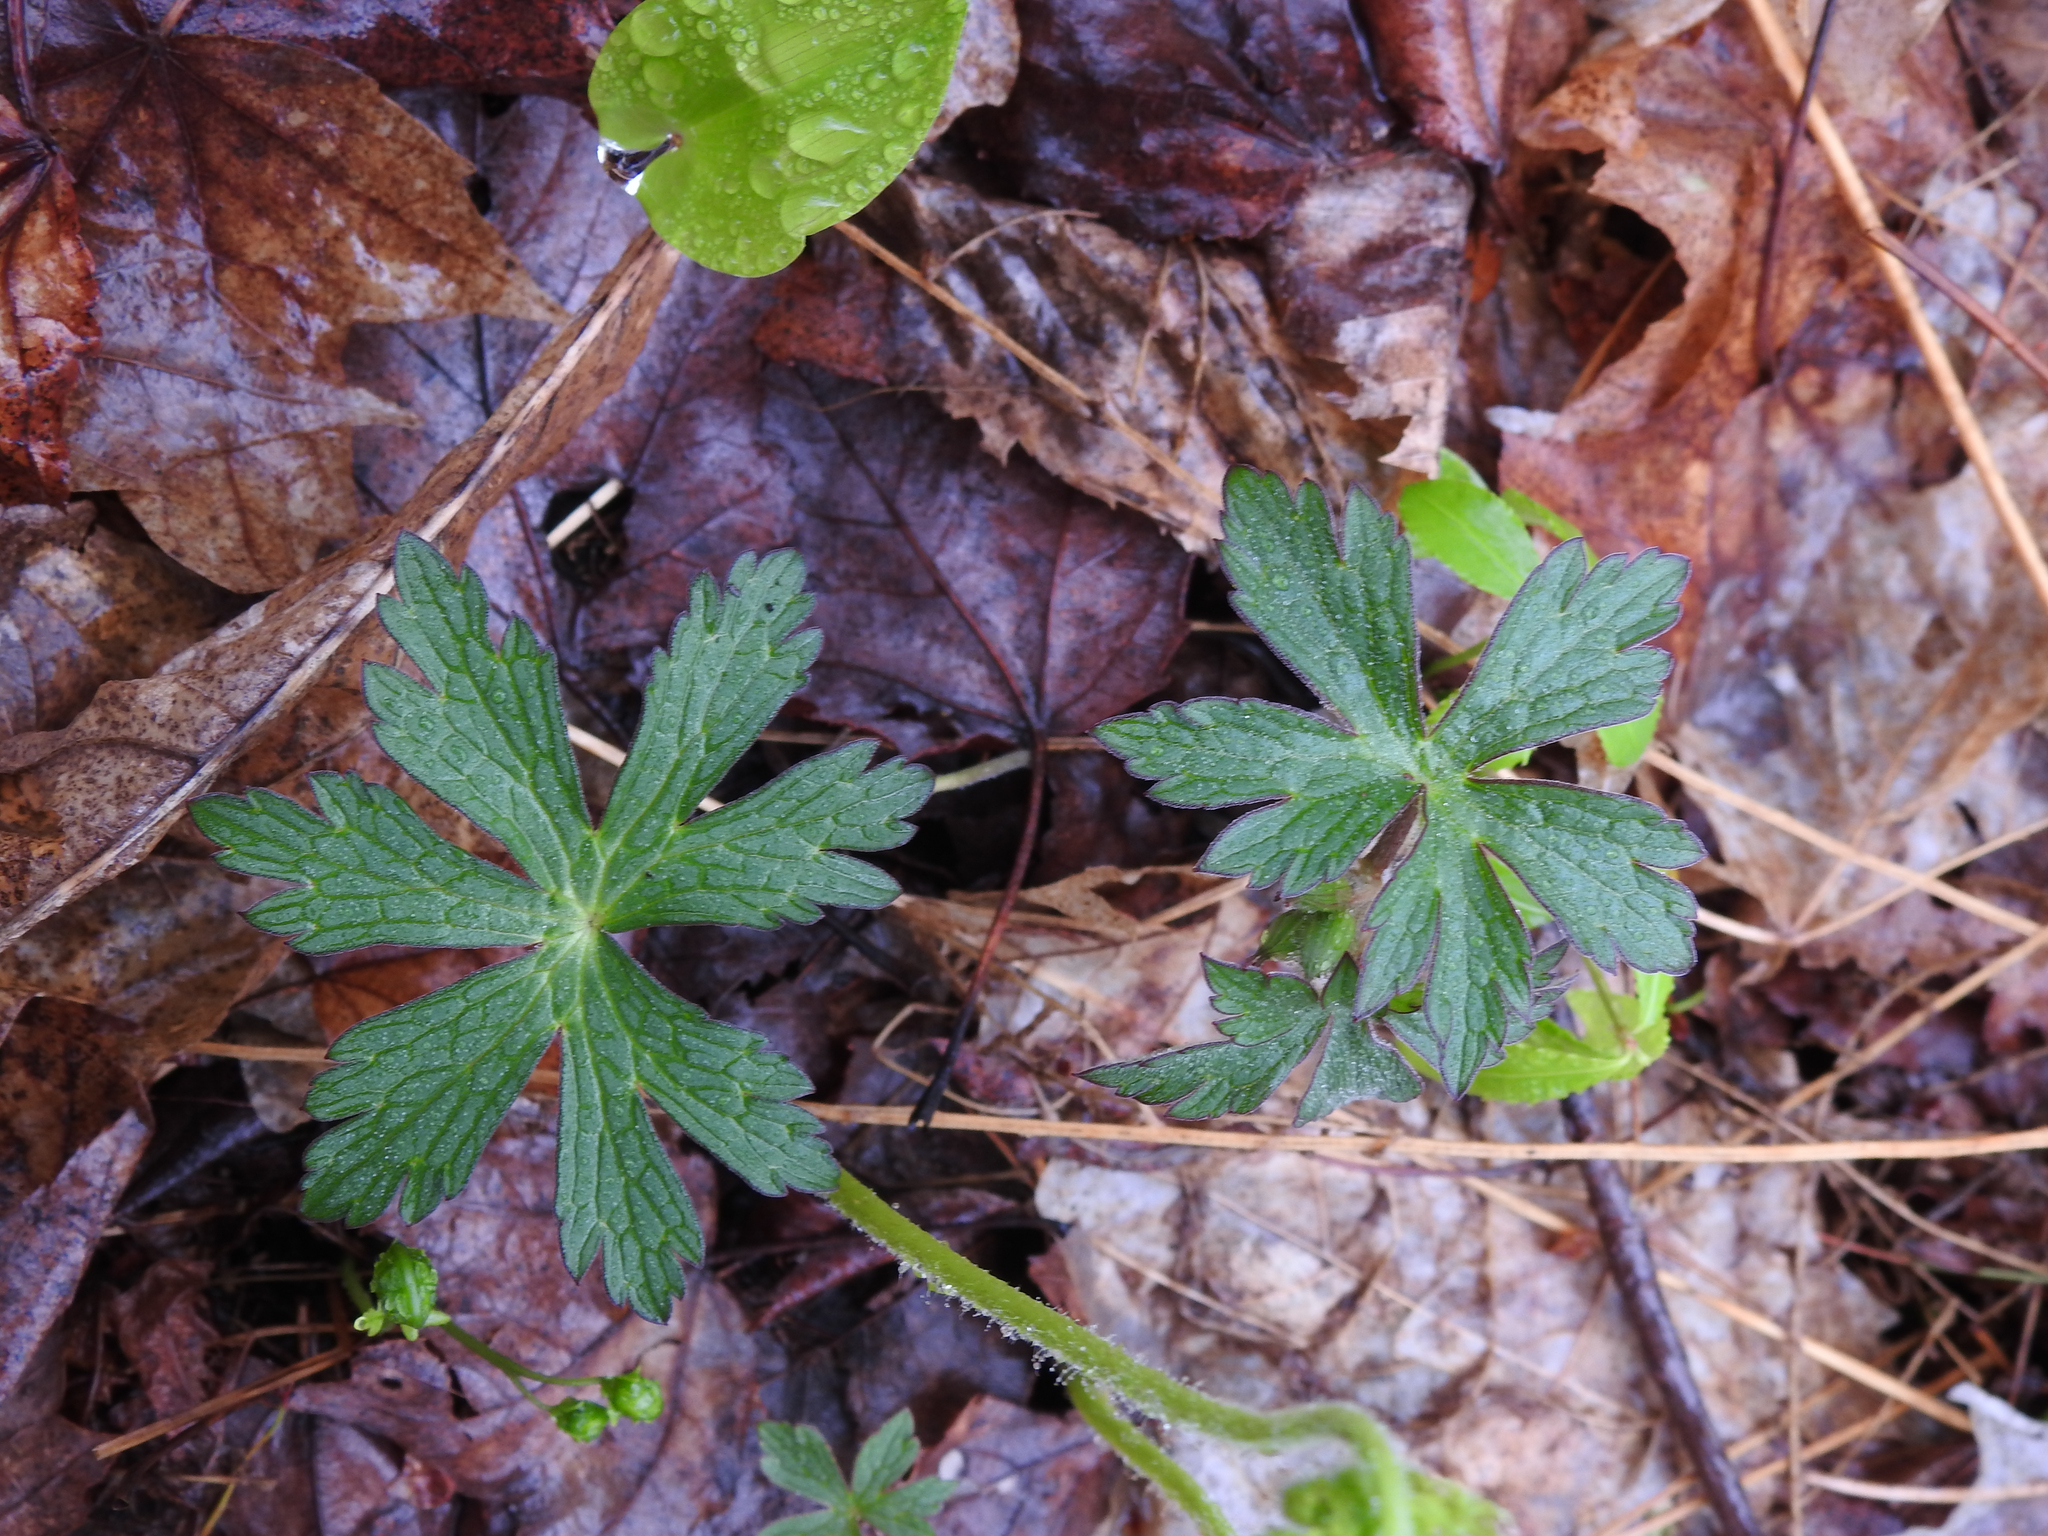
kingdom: Plantae
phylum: Tracheophyta
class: Magnoliopsida
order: Geraniales
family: Geraniaceae
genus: Geranium
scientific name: Geranium maculatum
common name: Spotted geranium
